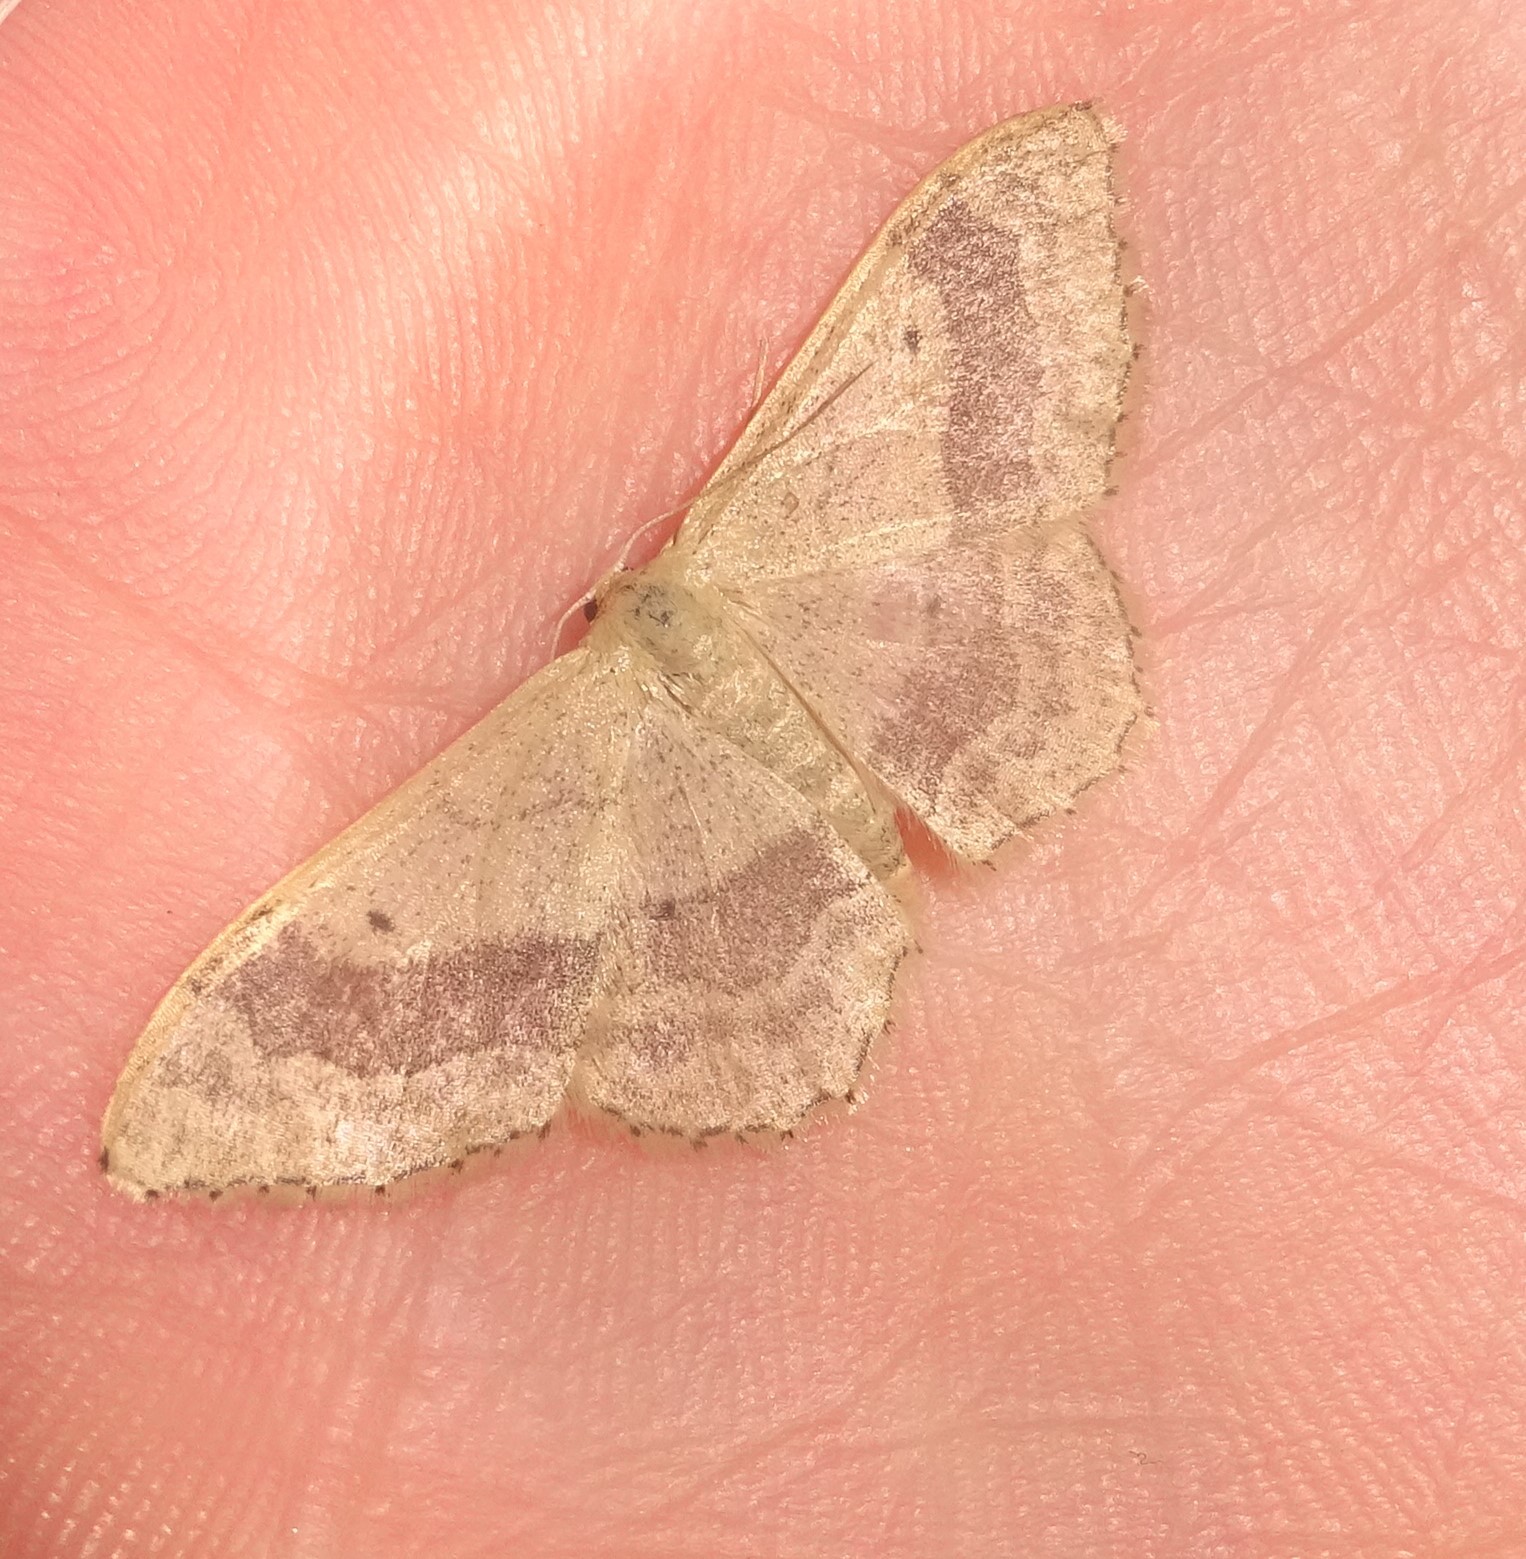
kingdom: Animalia
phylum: Arthropoda
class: Insecta
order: Lepidoptera
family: Geometridae
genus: Idaea
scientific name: Idaea aversata
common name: Riband wave
